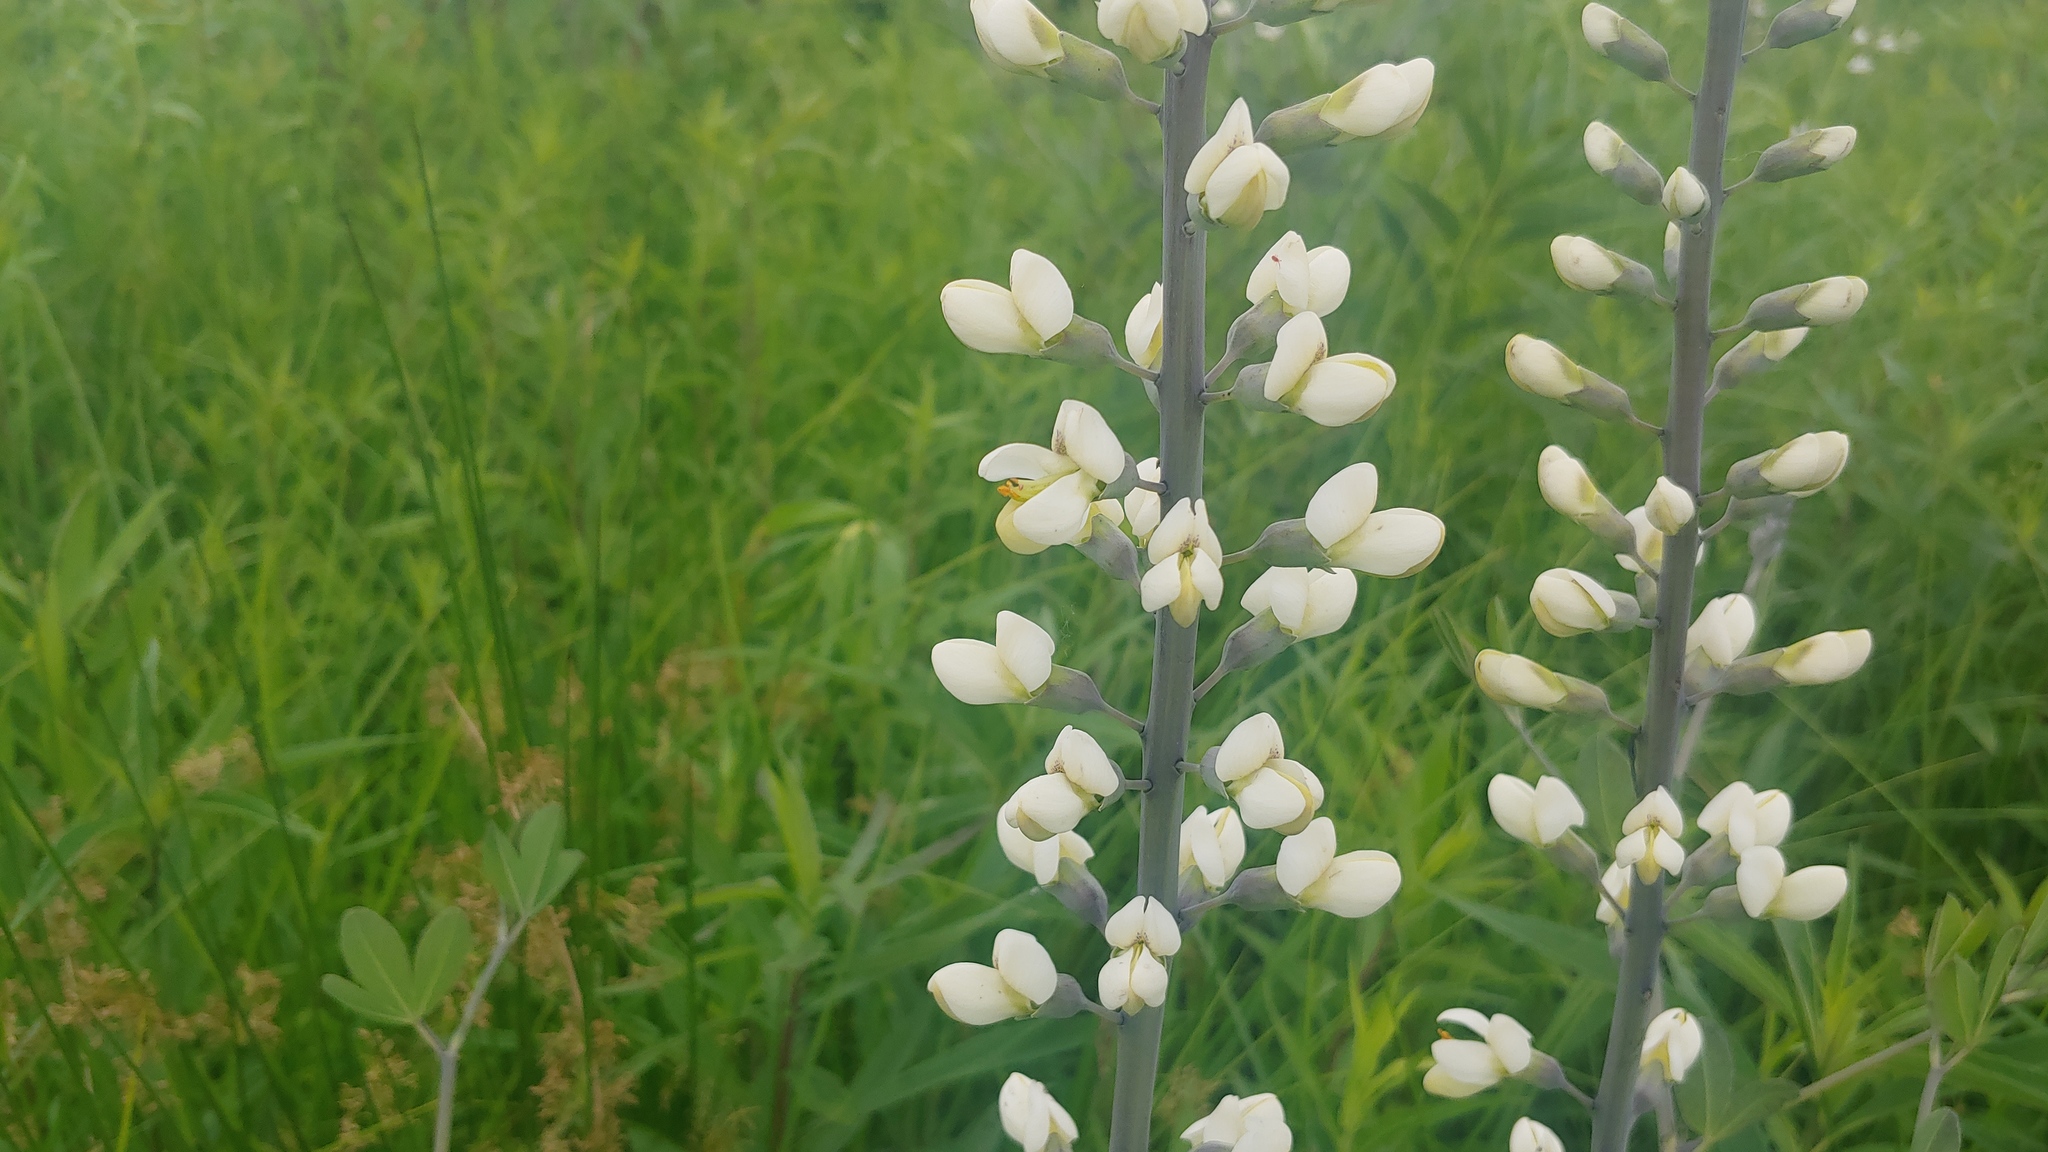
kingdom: Plantae
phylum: Tracheophyta
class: Magnoliopsida
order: Fabales
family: Fabaceae
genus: Baptisia
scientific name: Baptisia alba
